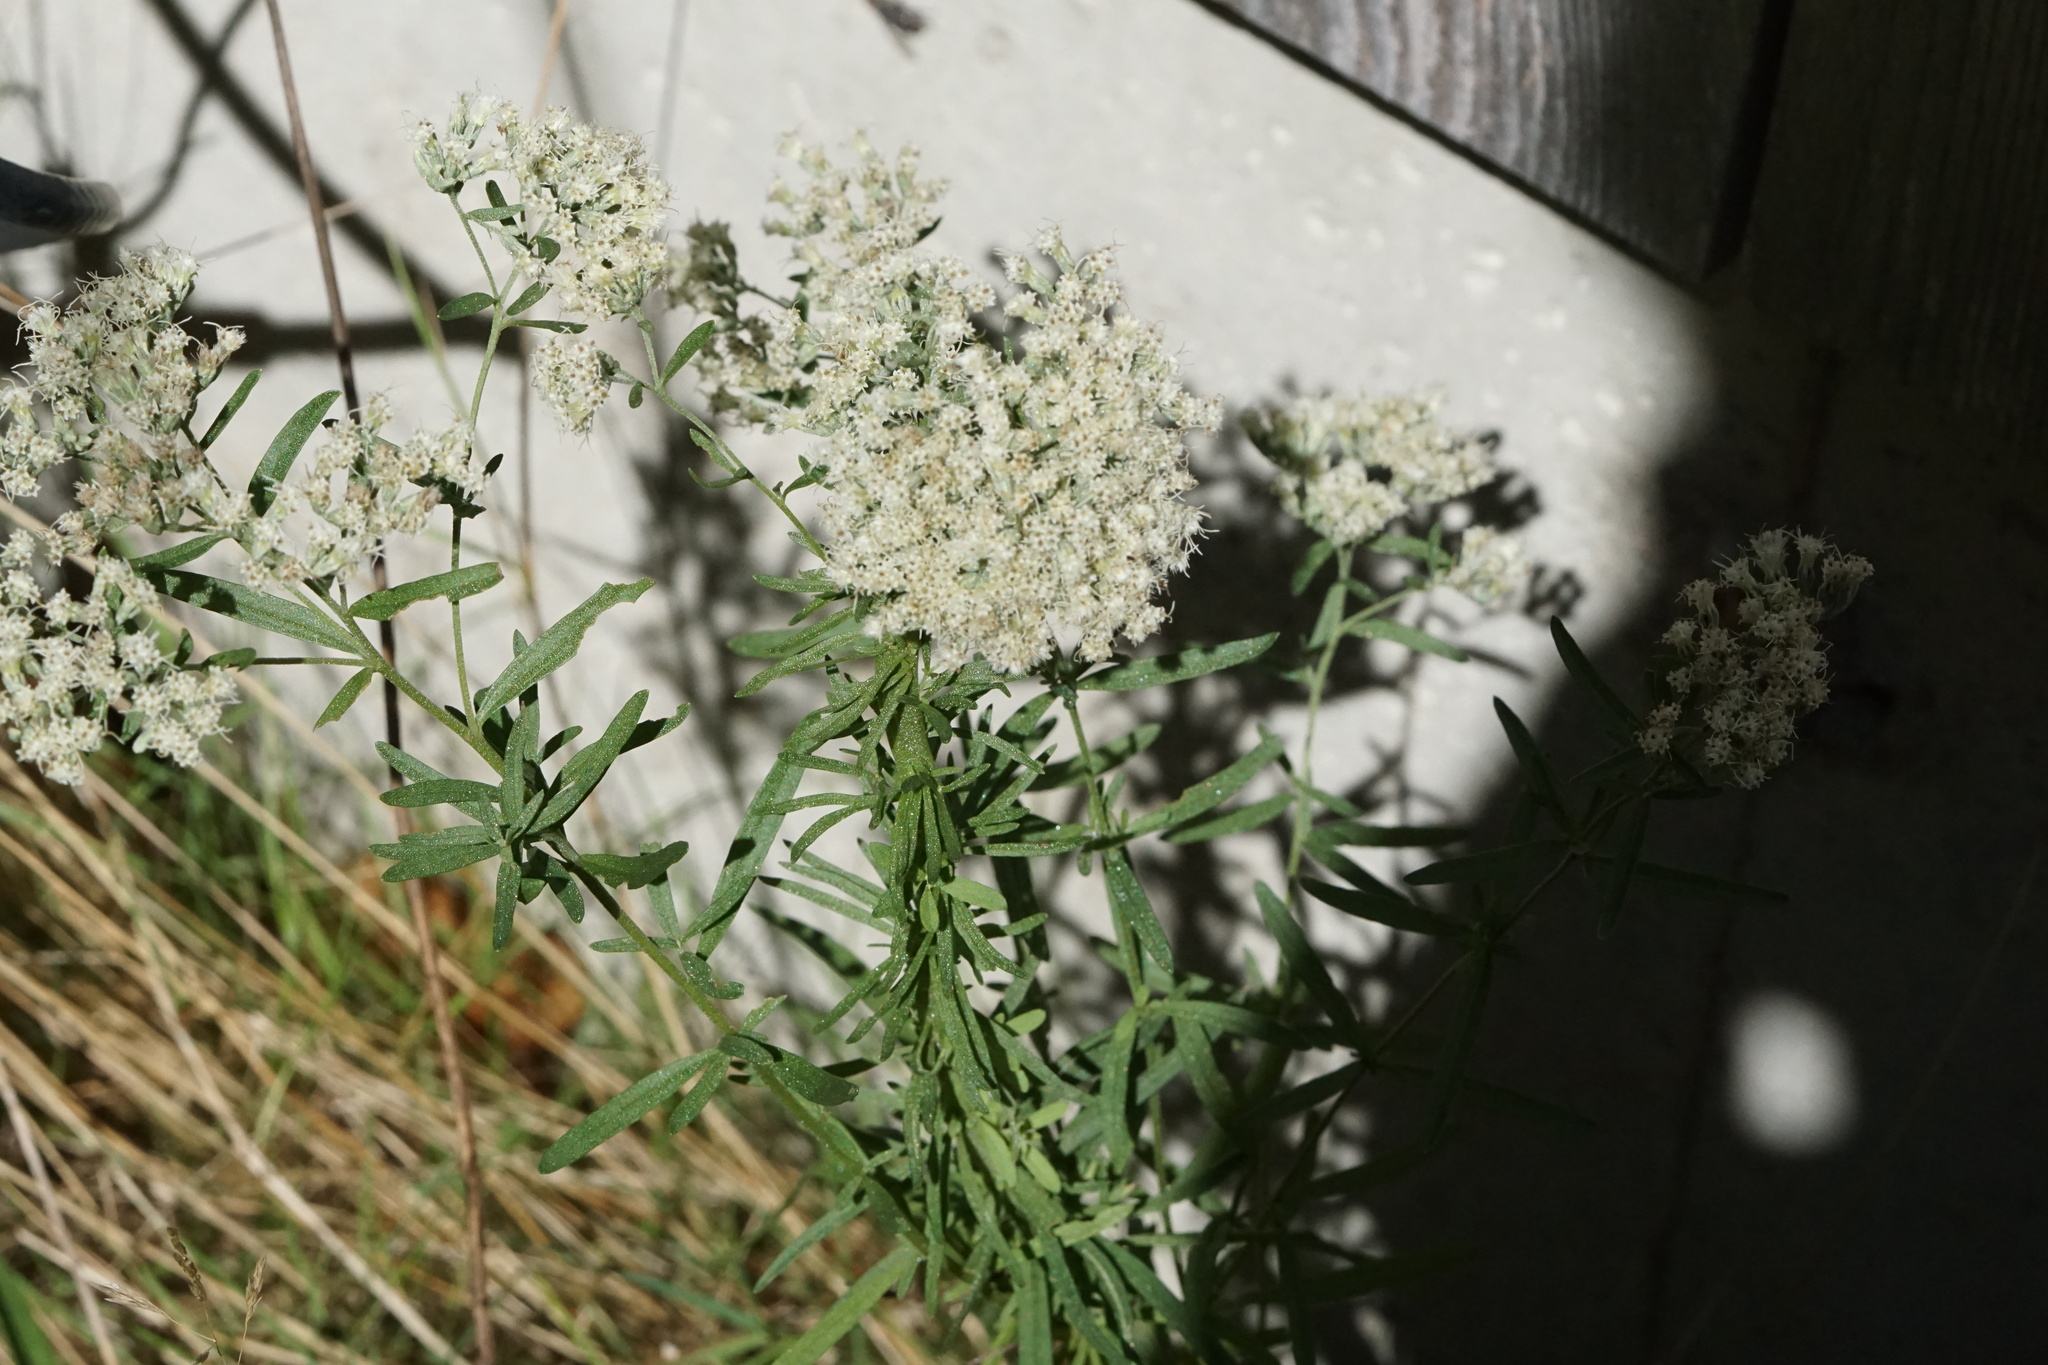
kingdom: Plantae
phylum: Tracheophyta
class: Magnoliopsida
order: Asterales
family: Asteraceae
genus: Eupatorium
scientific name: Eupatorium hyssopifolium
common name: Hyssop-leaf thoroughwort
